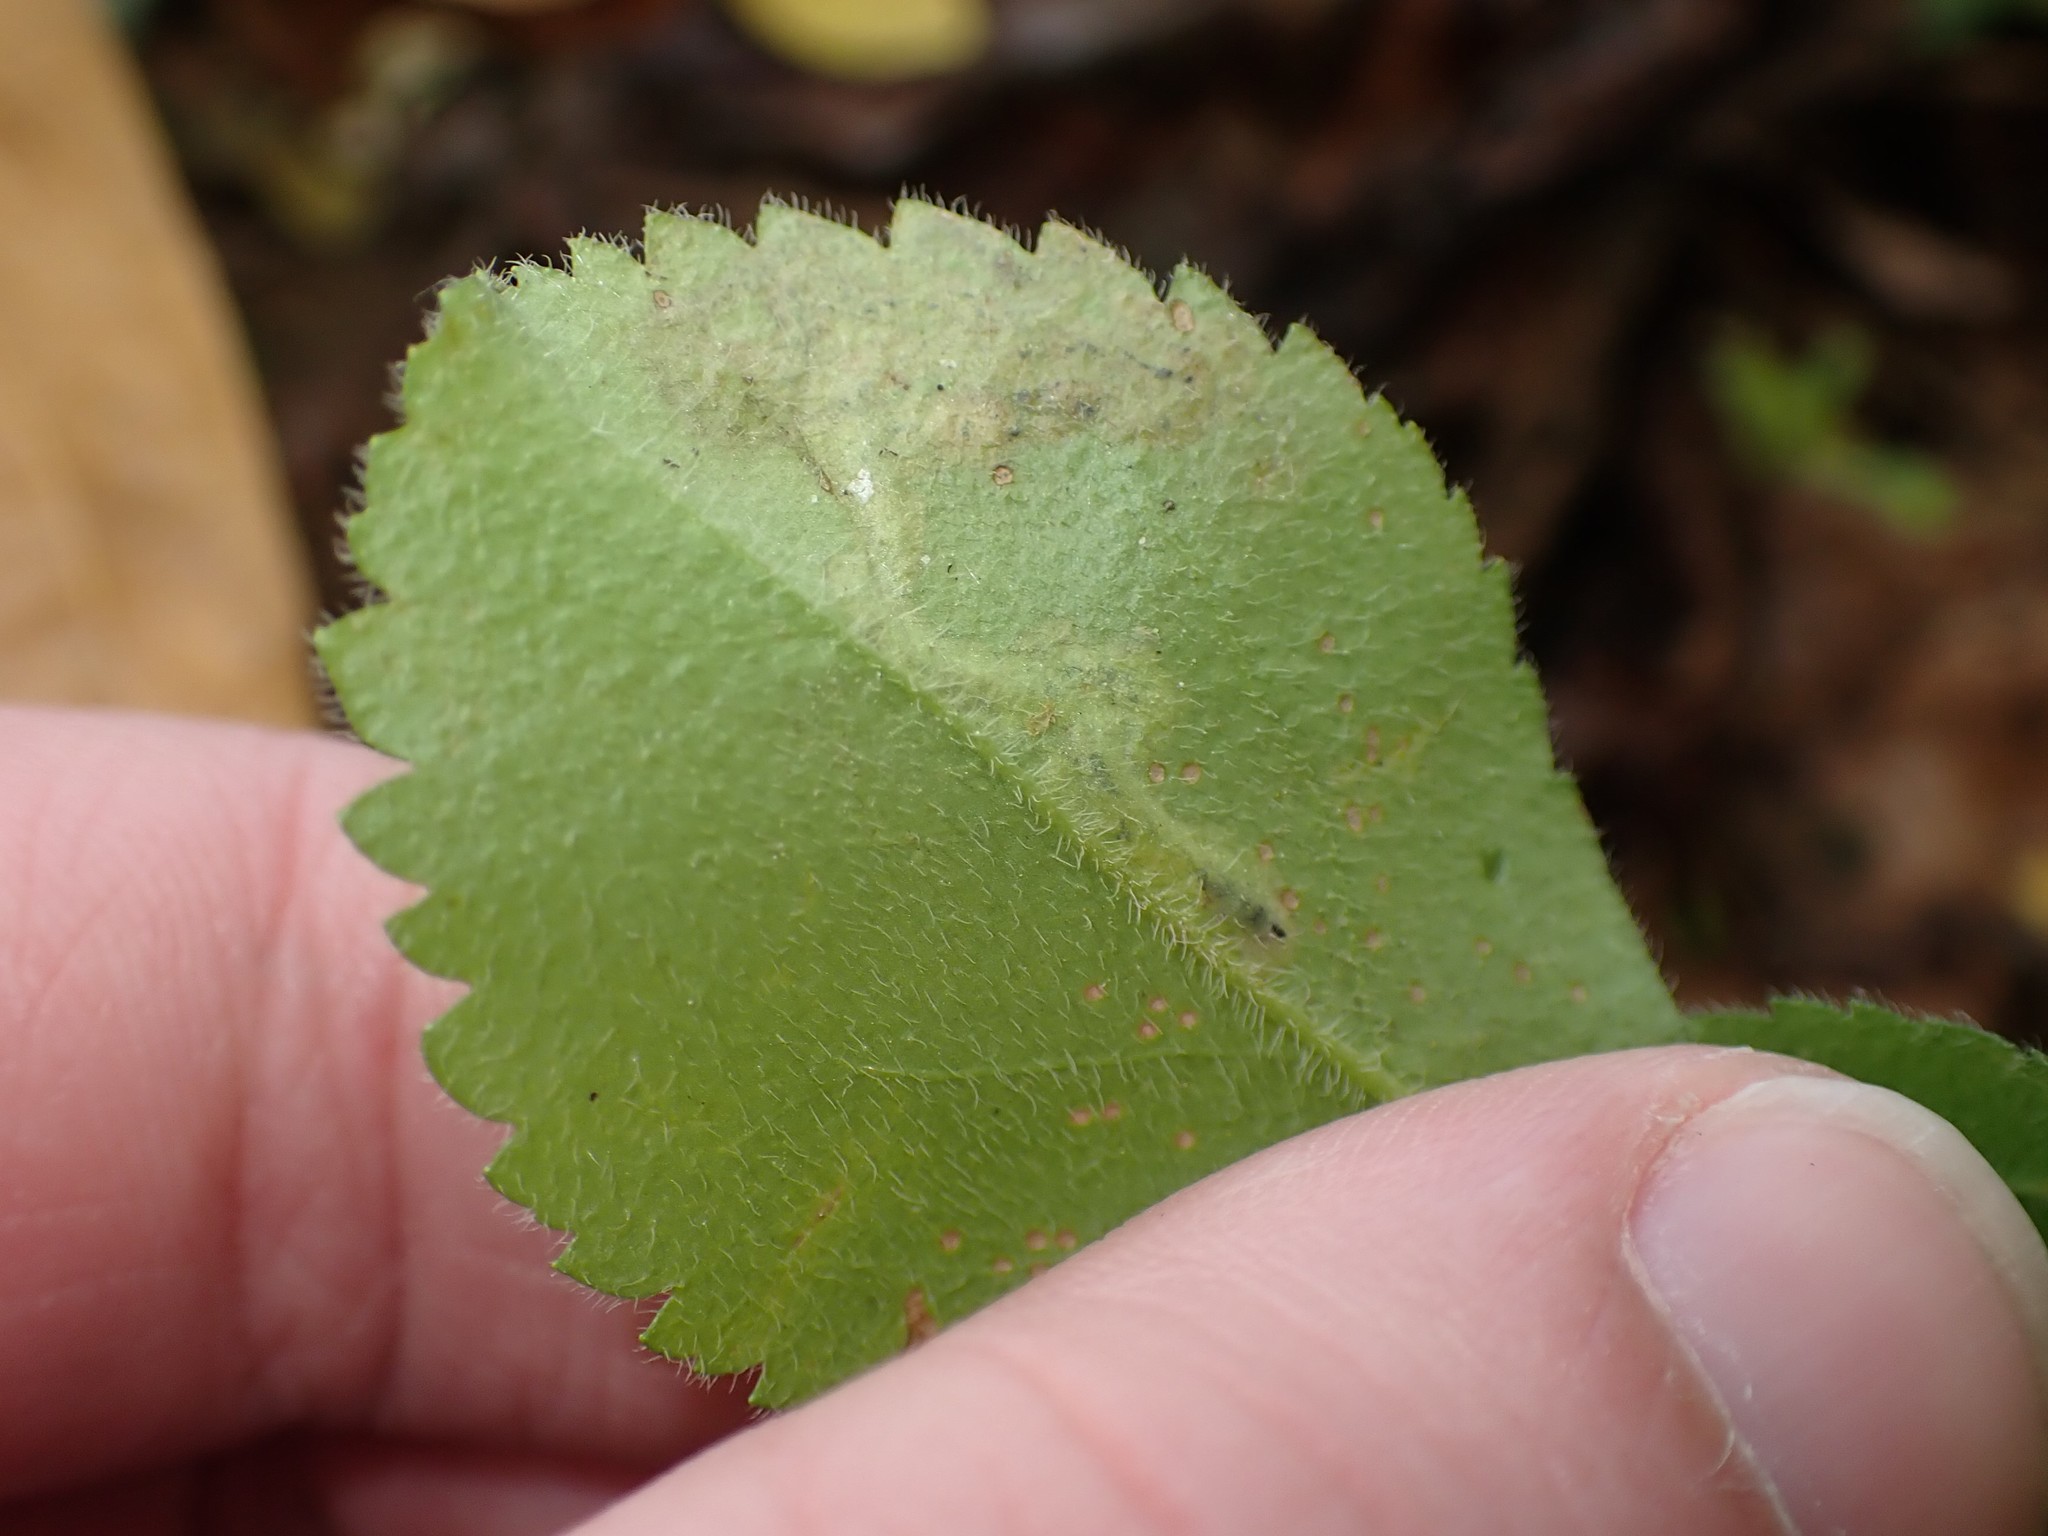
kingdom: Animalia
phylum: Arthropoda
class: Insecta
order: Diptera
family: Agromyzidae
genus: Phytomyza
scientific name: Phytomyza crassiseta
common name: Leaf-miner fly
